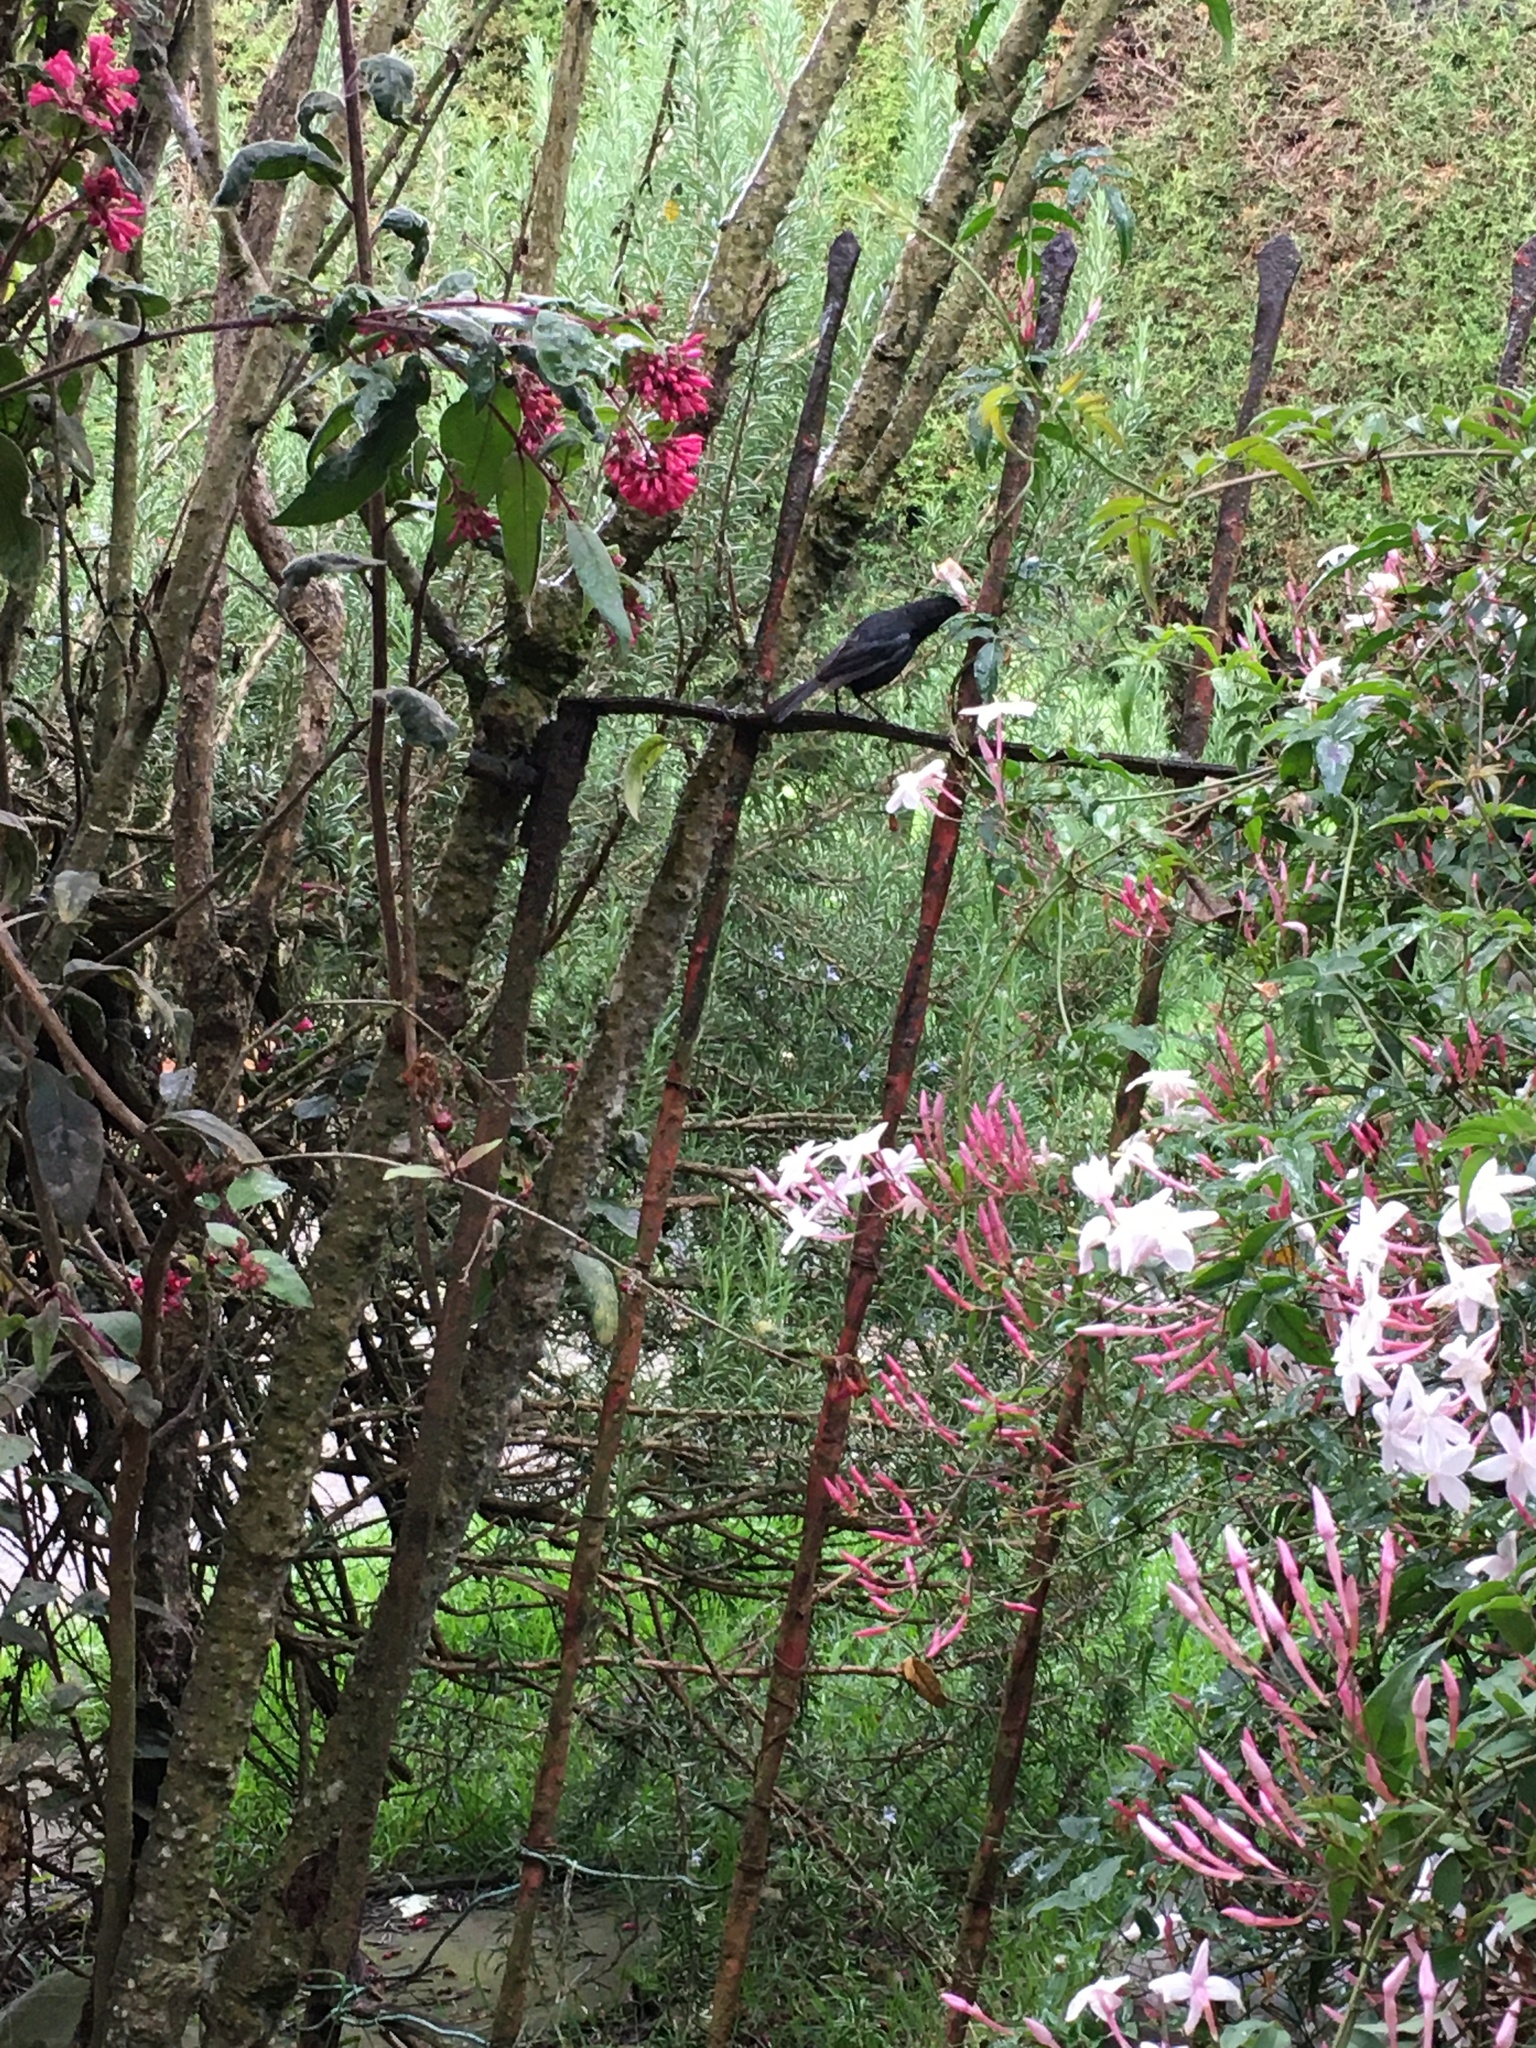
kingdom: Animalia
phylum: Chordata
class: Aves
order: Passeriformes
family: Thraupidae
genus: Diglossa
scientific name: Diglossa humeralis
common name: Black flowerpiercer
